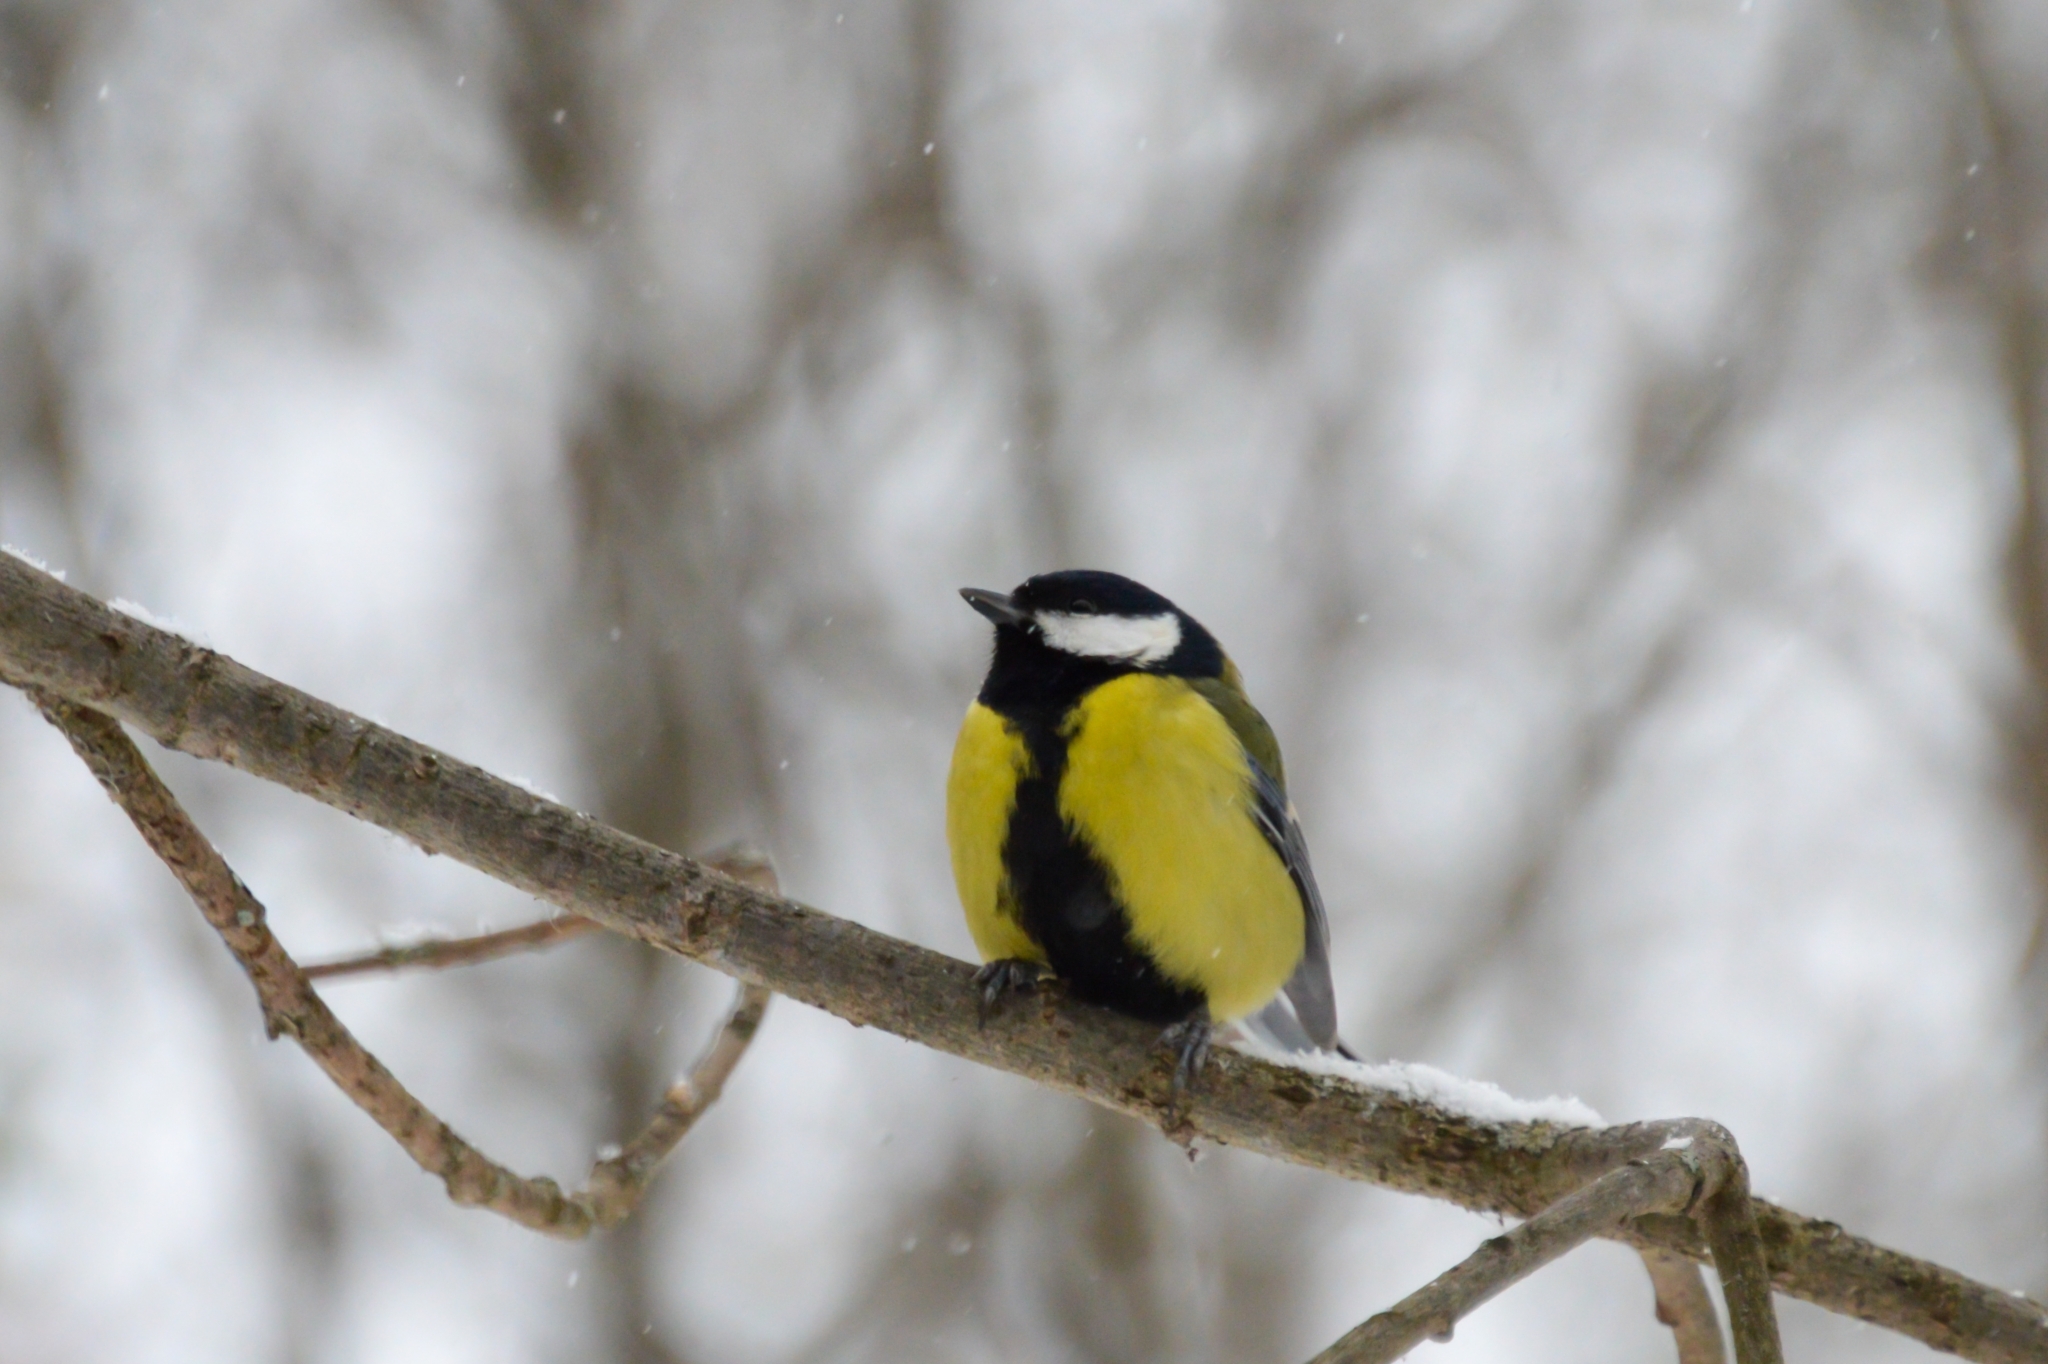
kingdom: Animalia
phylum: Chordata
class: Aves
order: Passeriformes
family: Paridae
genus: Parus
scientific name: Parus major
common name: Great tit
